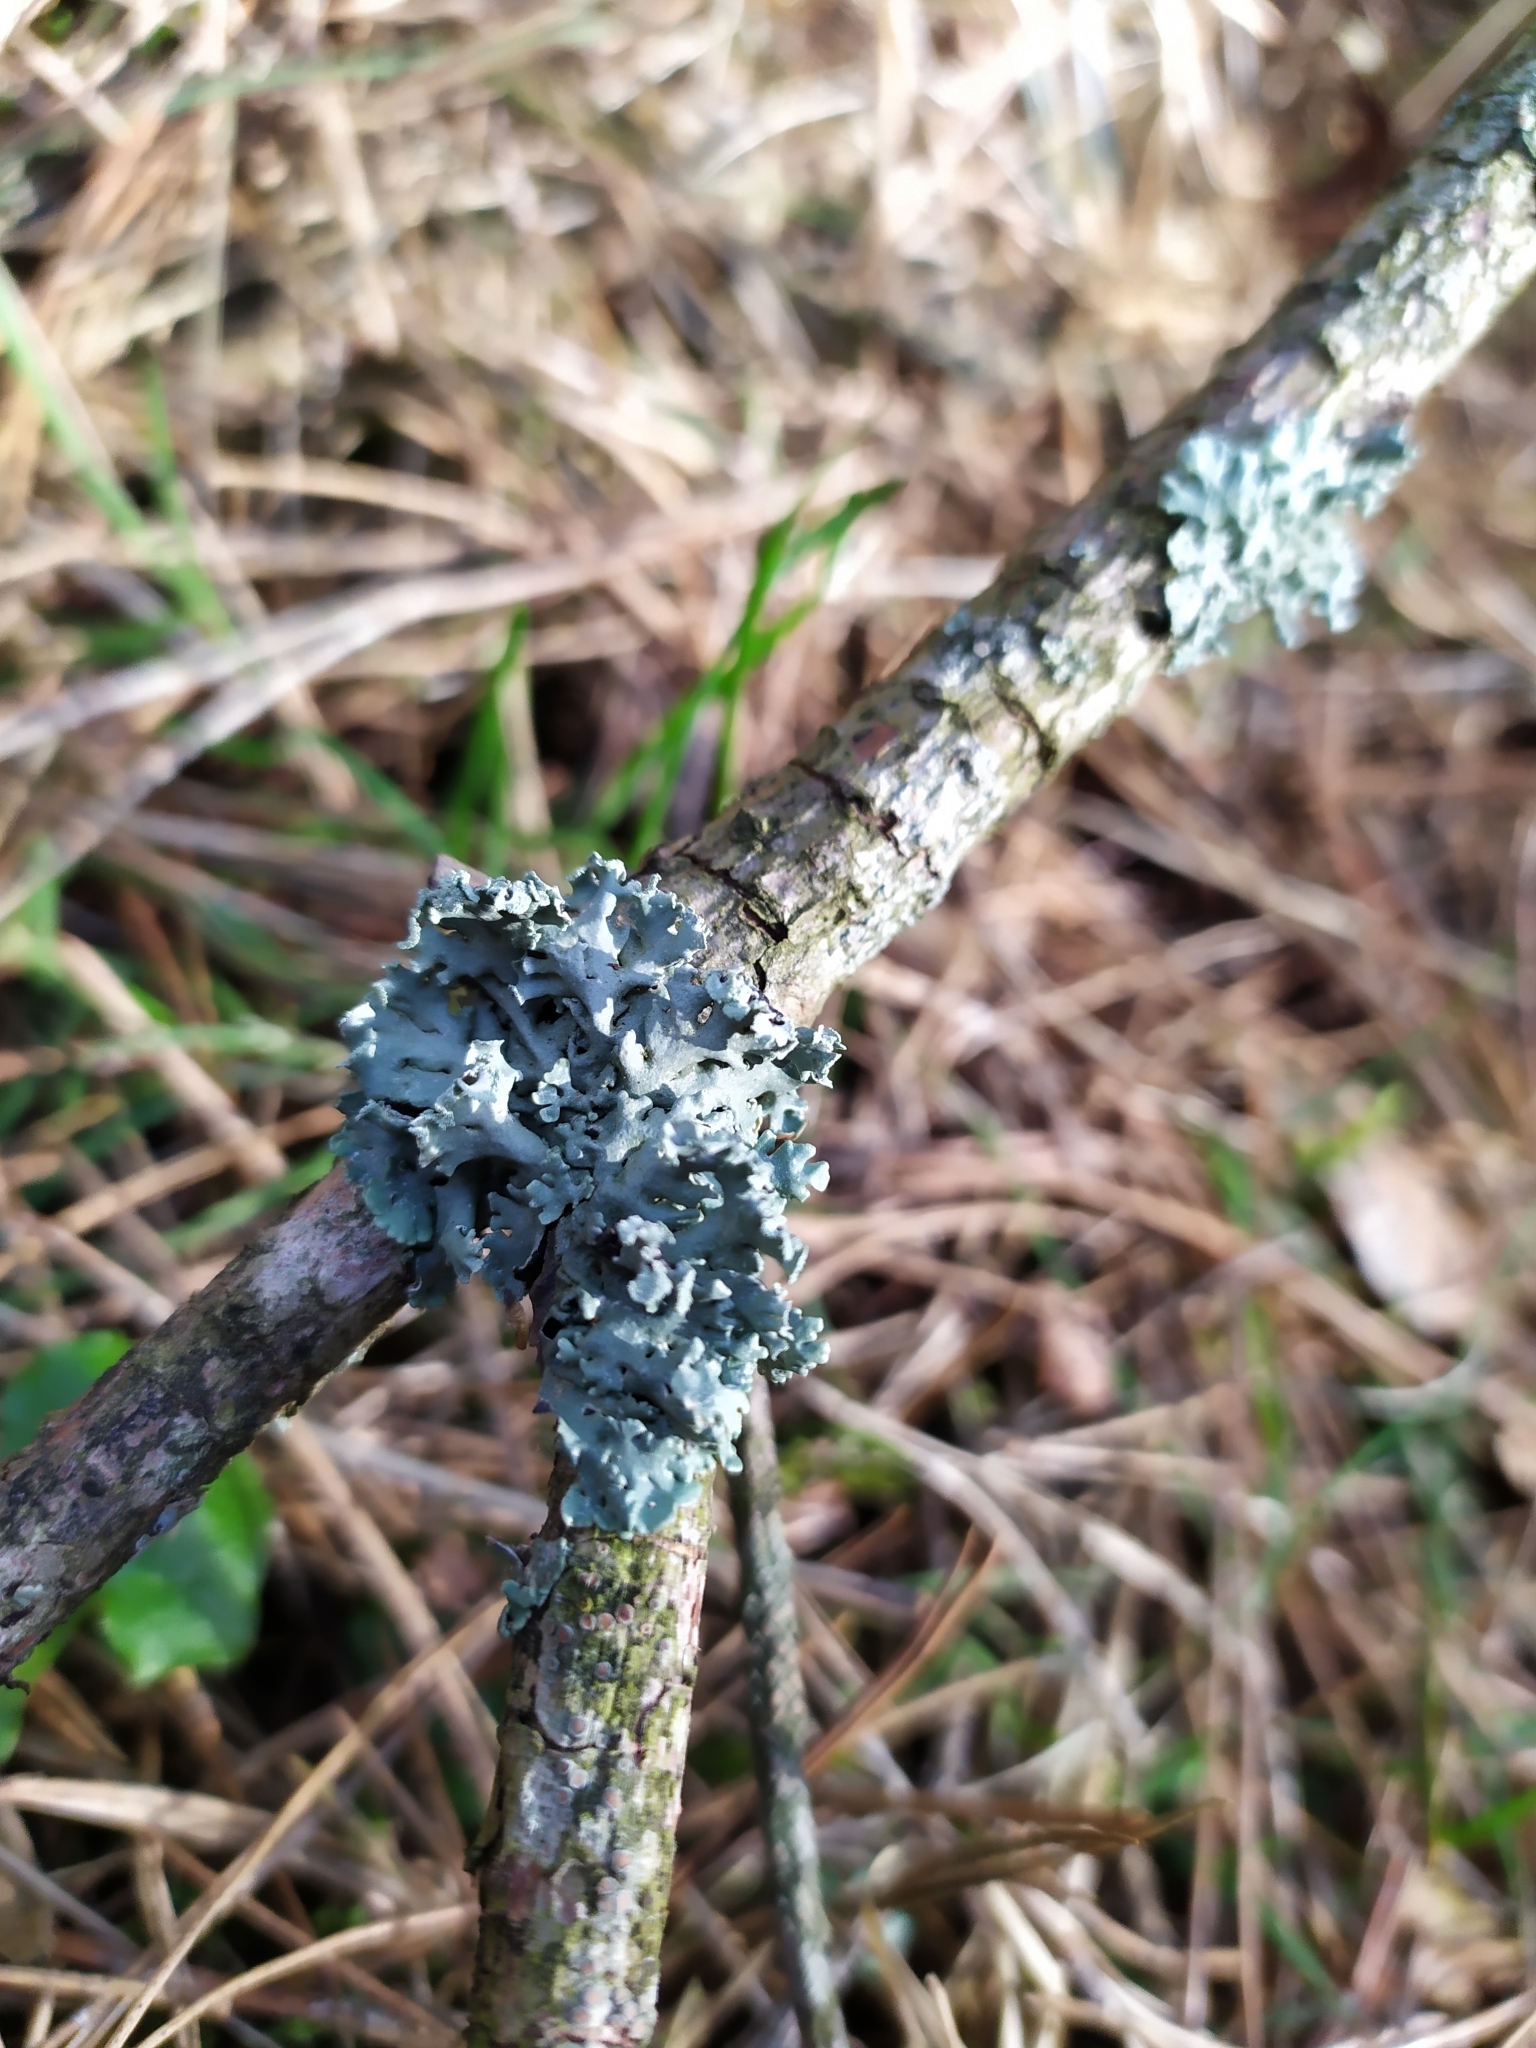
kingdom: Fungi
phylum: Ascomycota
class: Lecanoromycetes
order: Lecanorales
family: Parmeliaceae
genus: Hypogymnia
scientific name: Hypogymnia physodes
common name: Dark crottle
